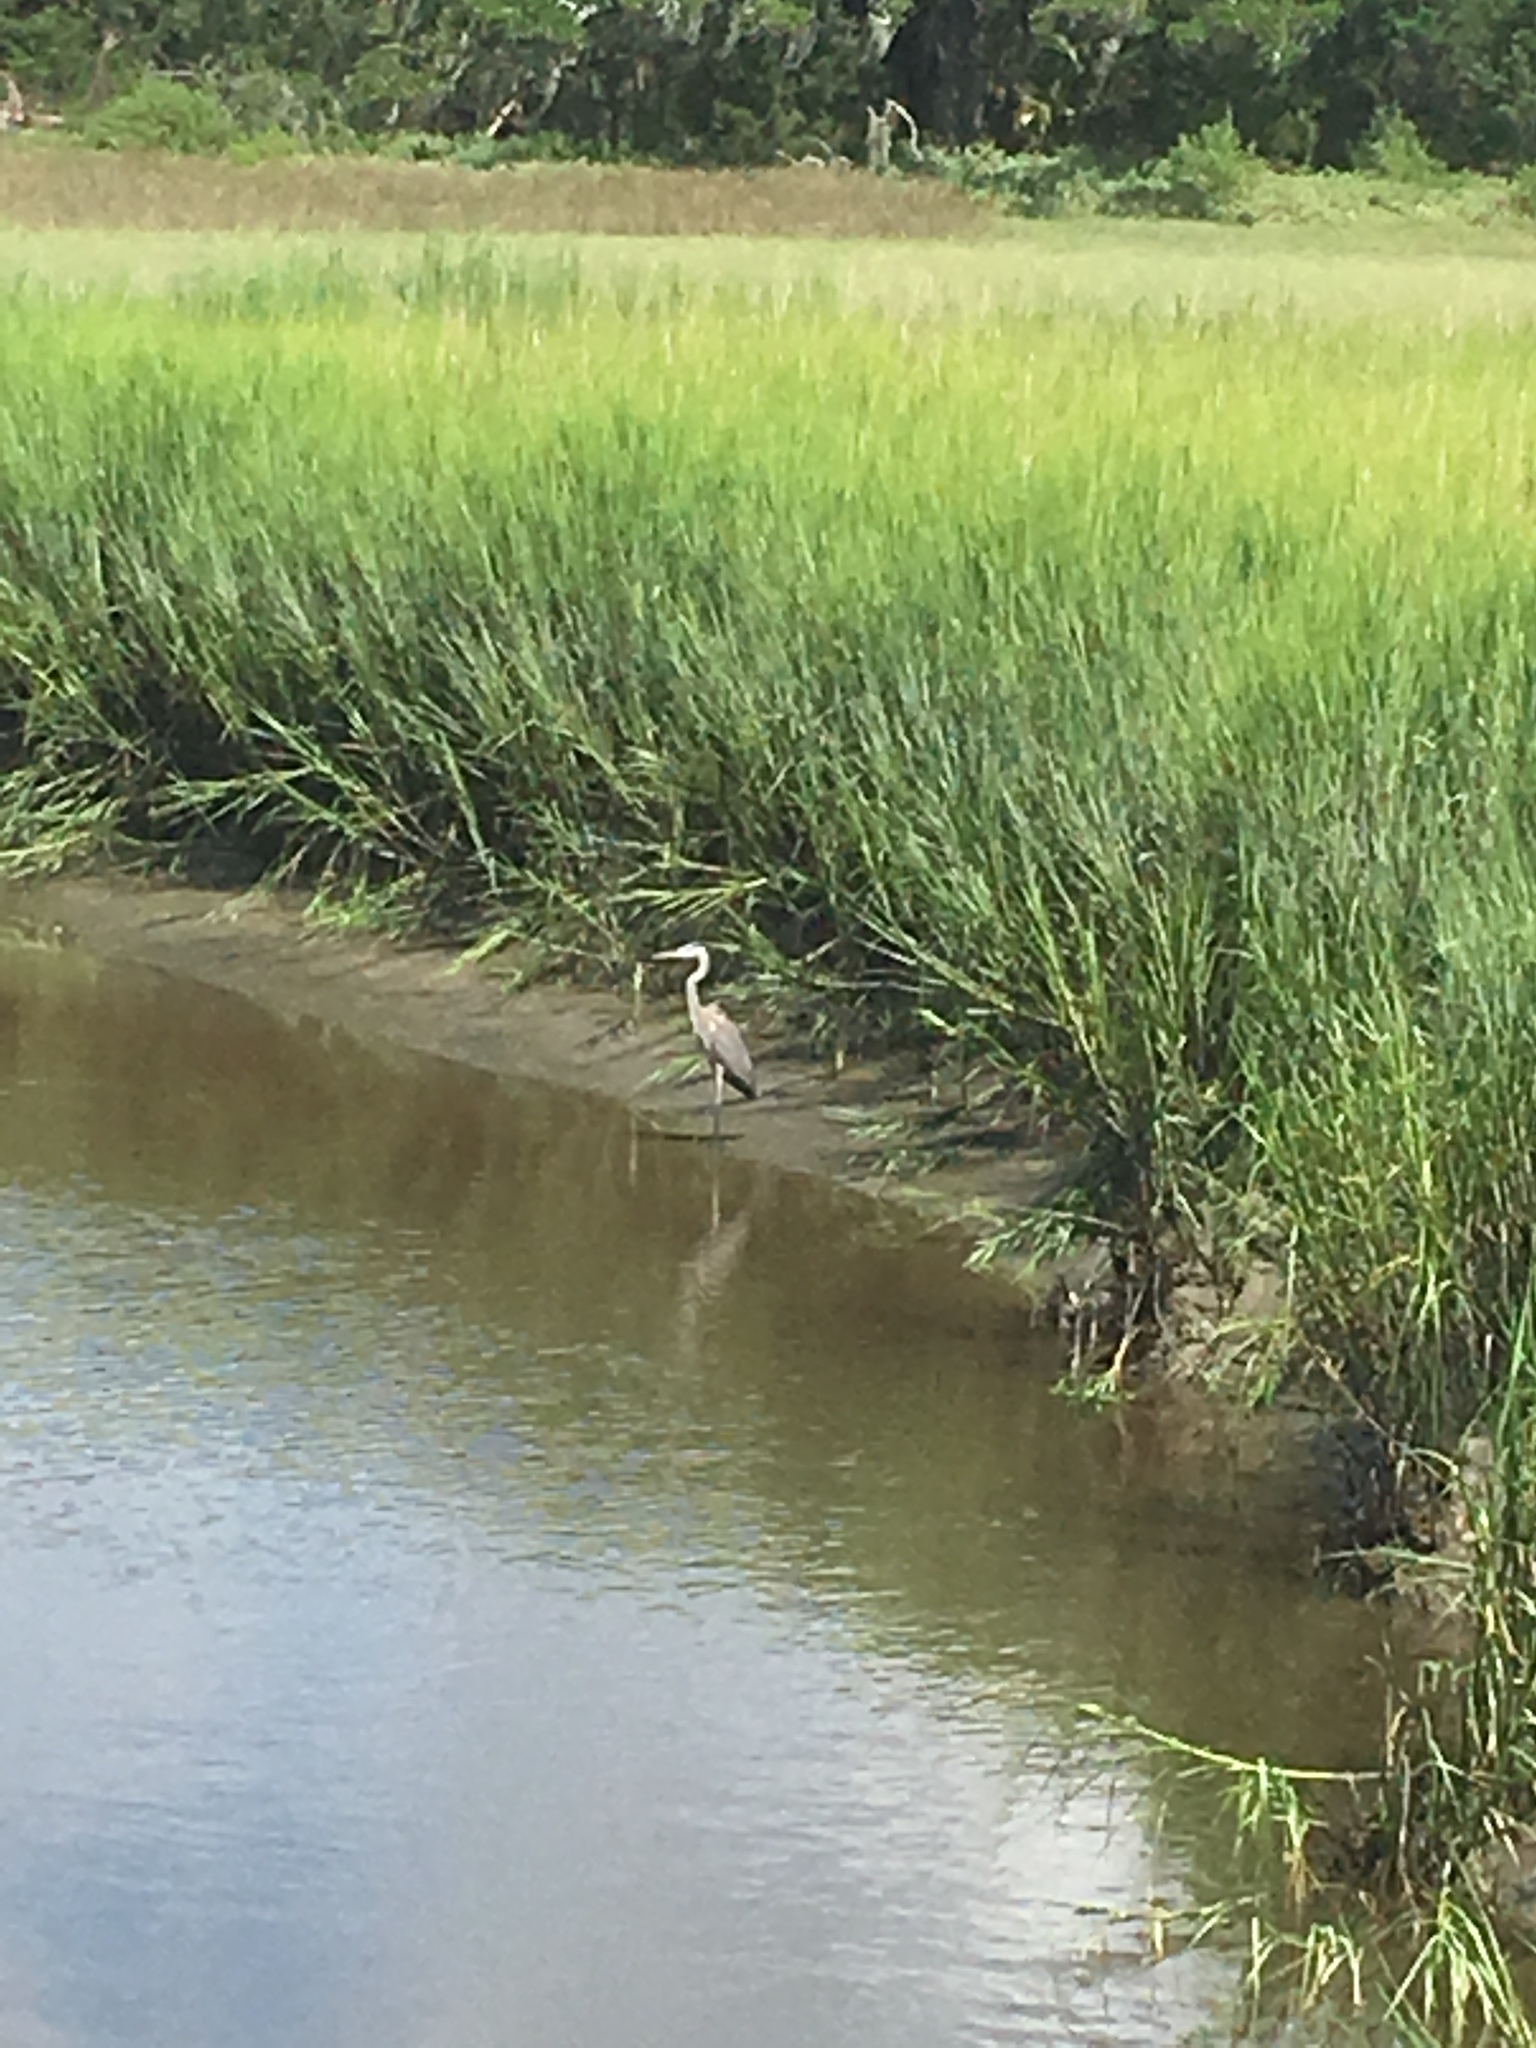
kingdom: Animalia
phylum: Chordata
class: Aves
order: Pelecaniformes
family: Ardeidae
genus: Ardea
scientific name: Ardea herodias
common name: Great blue heron
